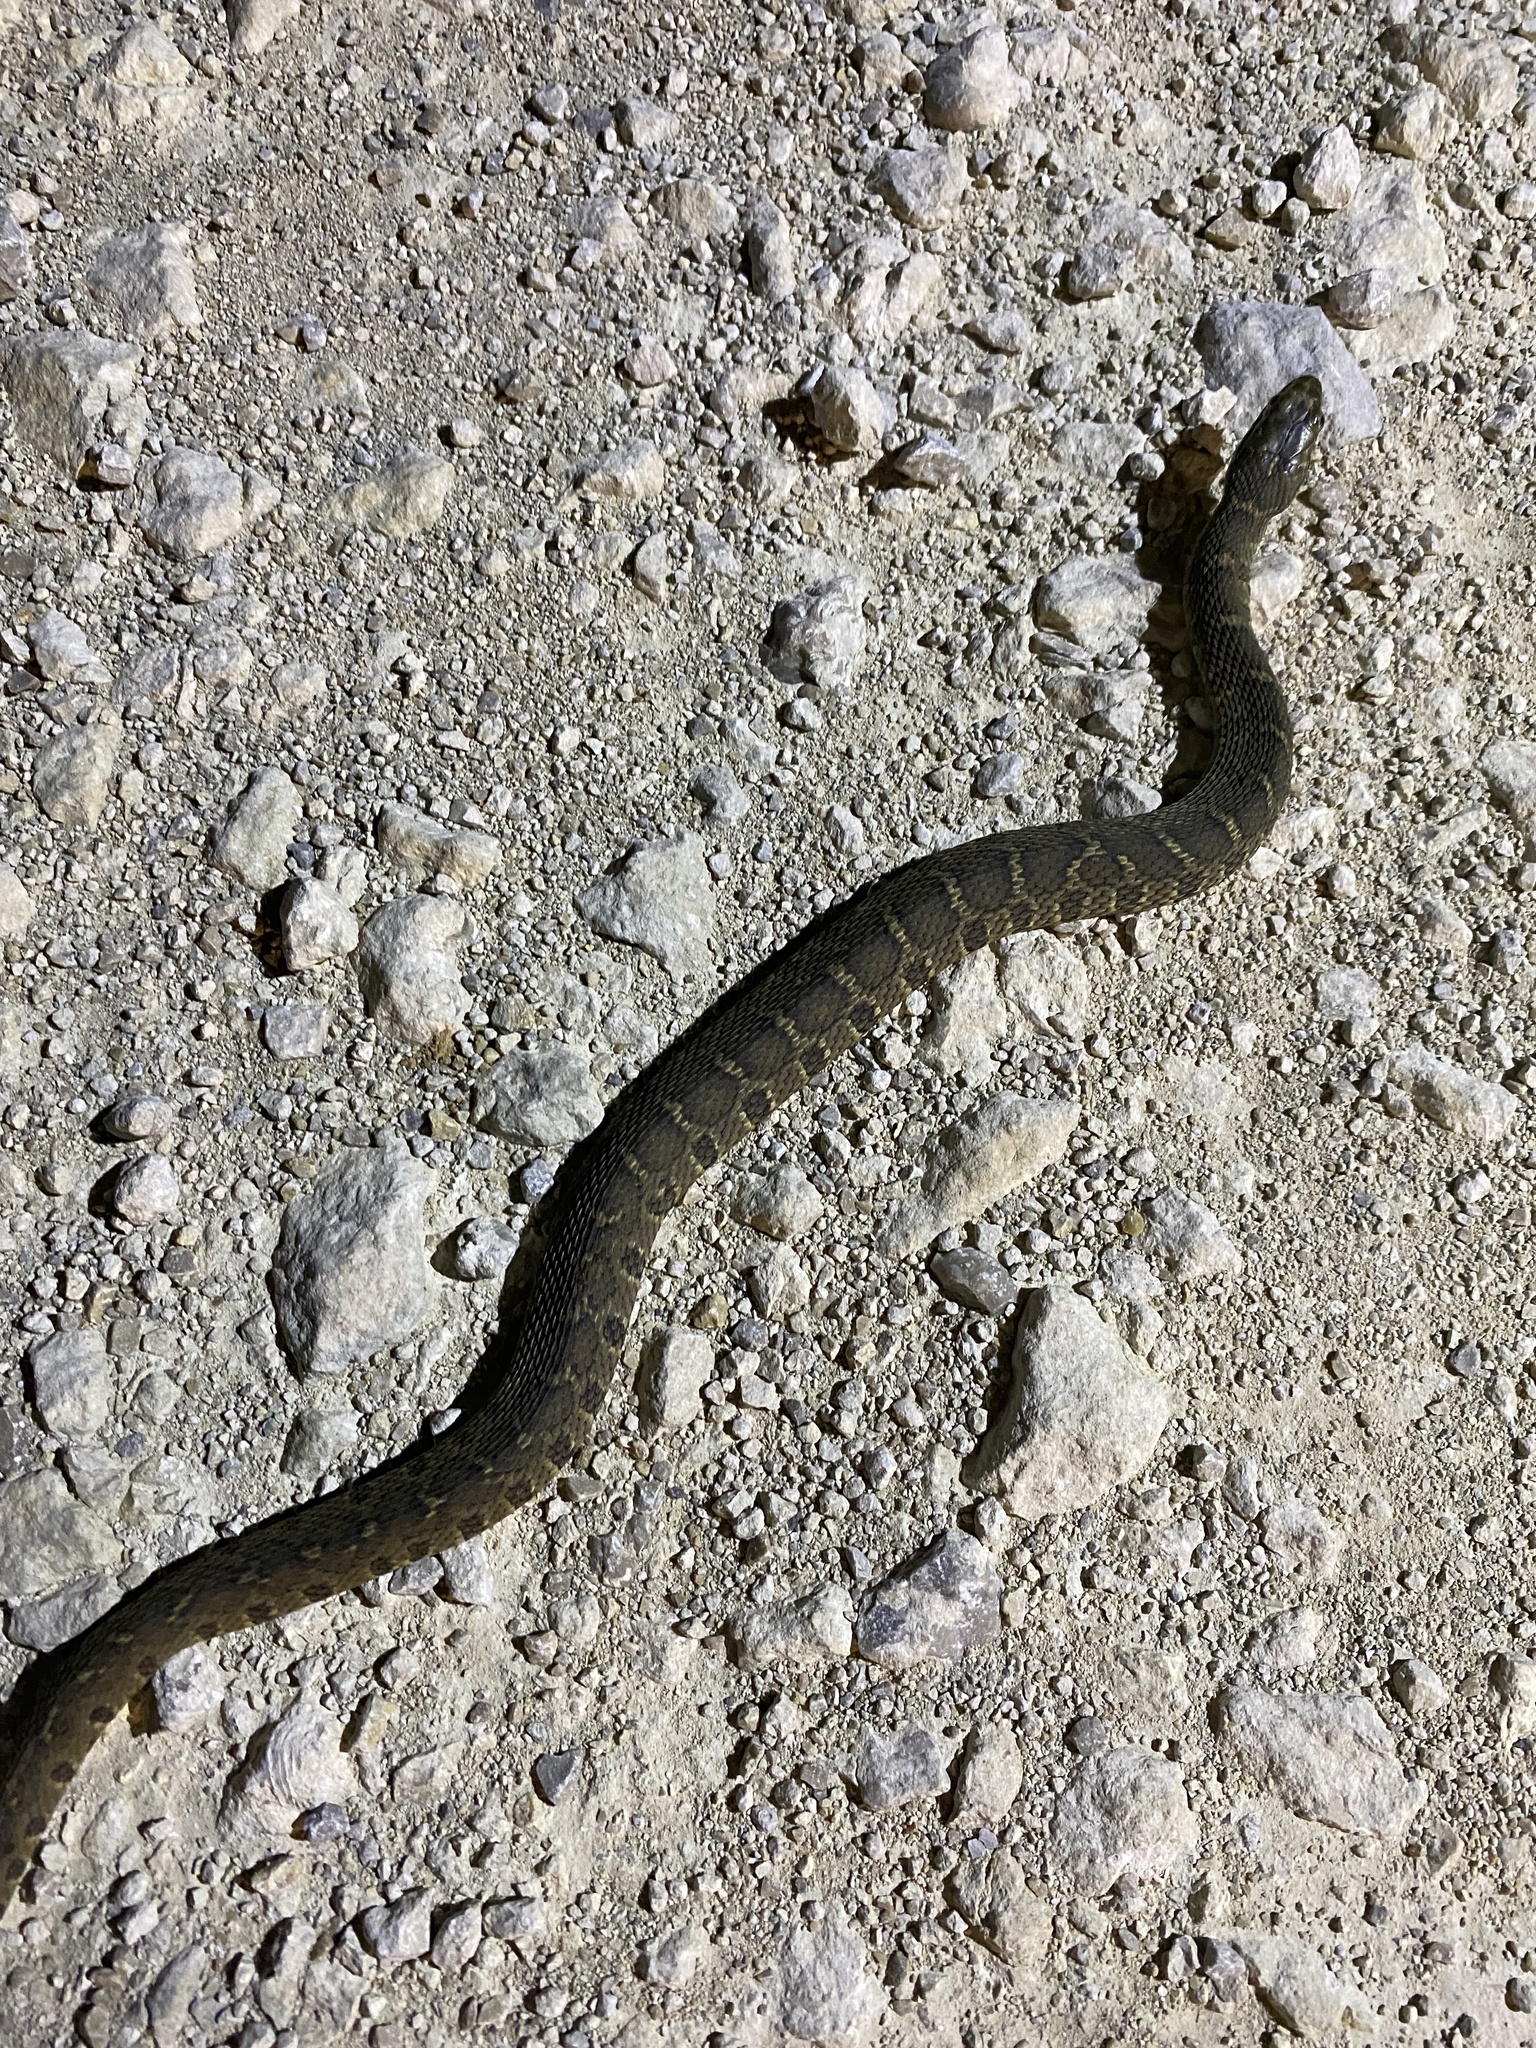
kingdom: Animalia
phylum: Chordata
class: Squamata
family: Colubridae
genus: Nerodia
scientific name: Nerodia erythrogaster
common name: Plainbelly water snake
